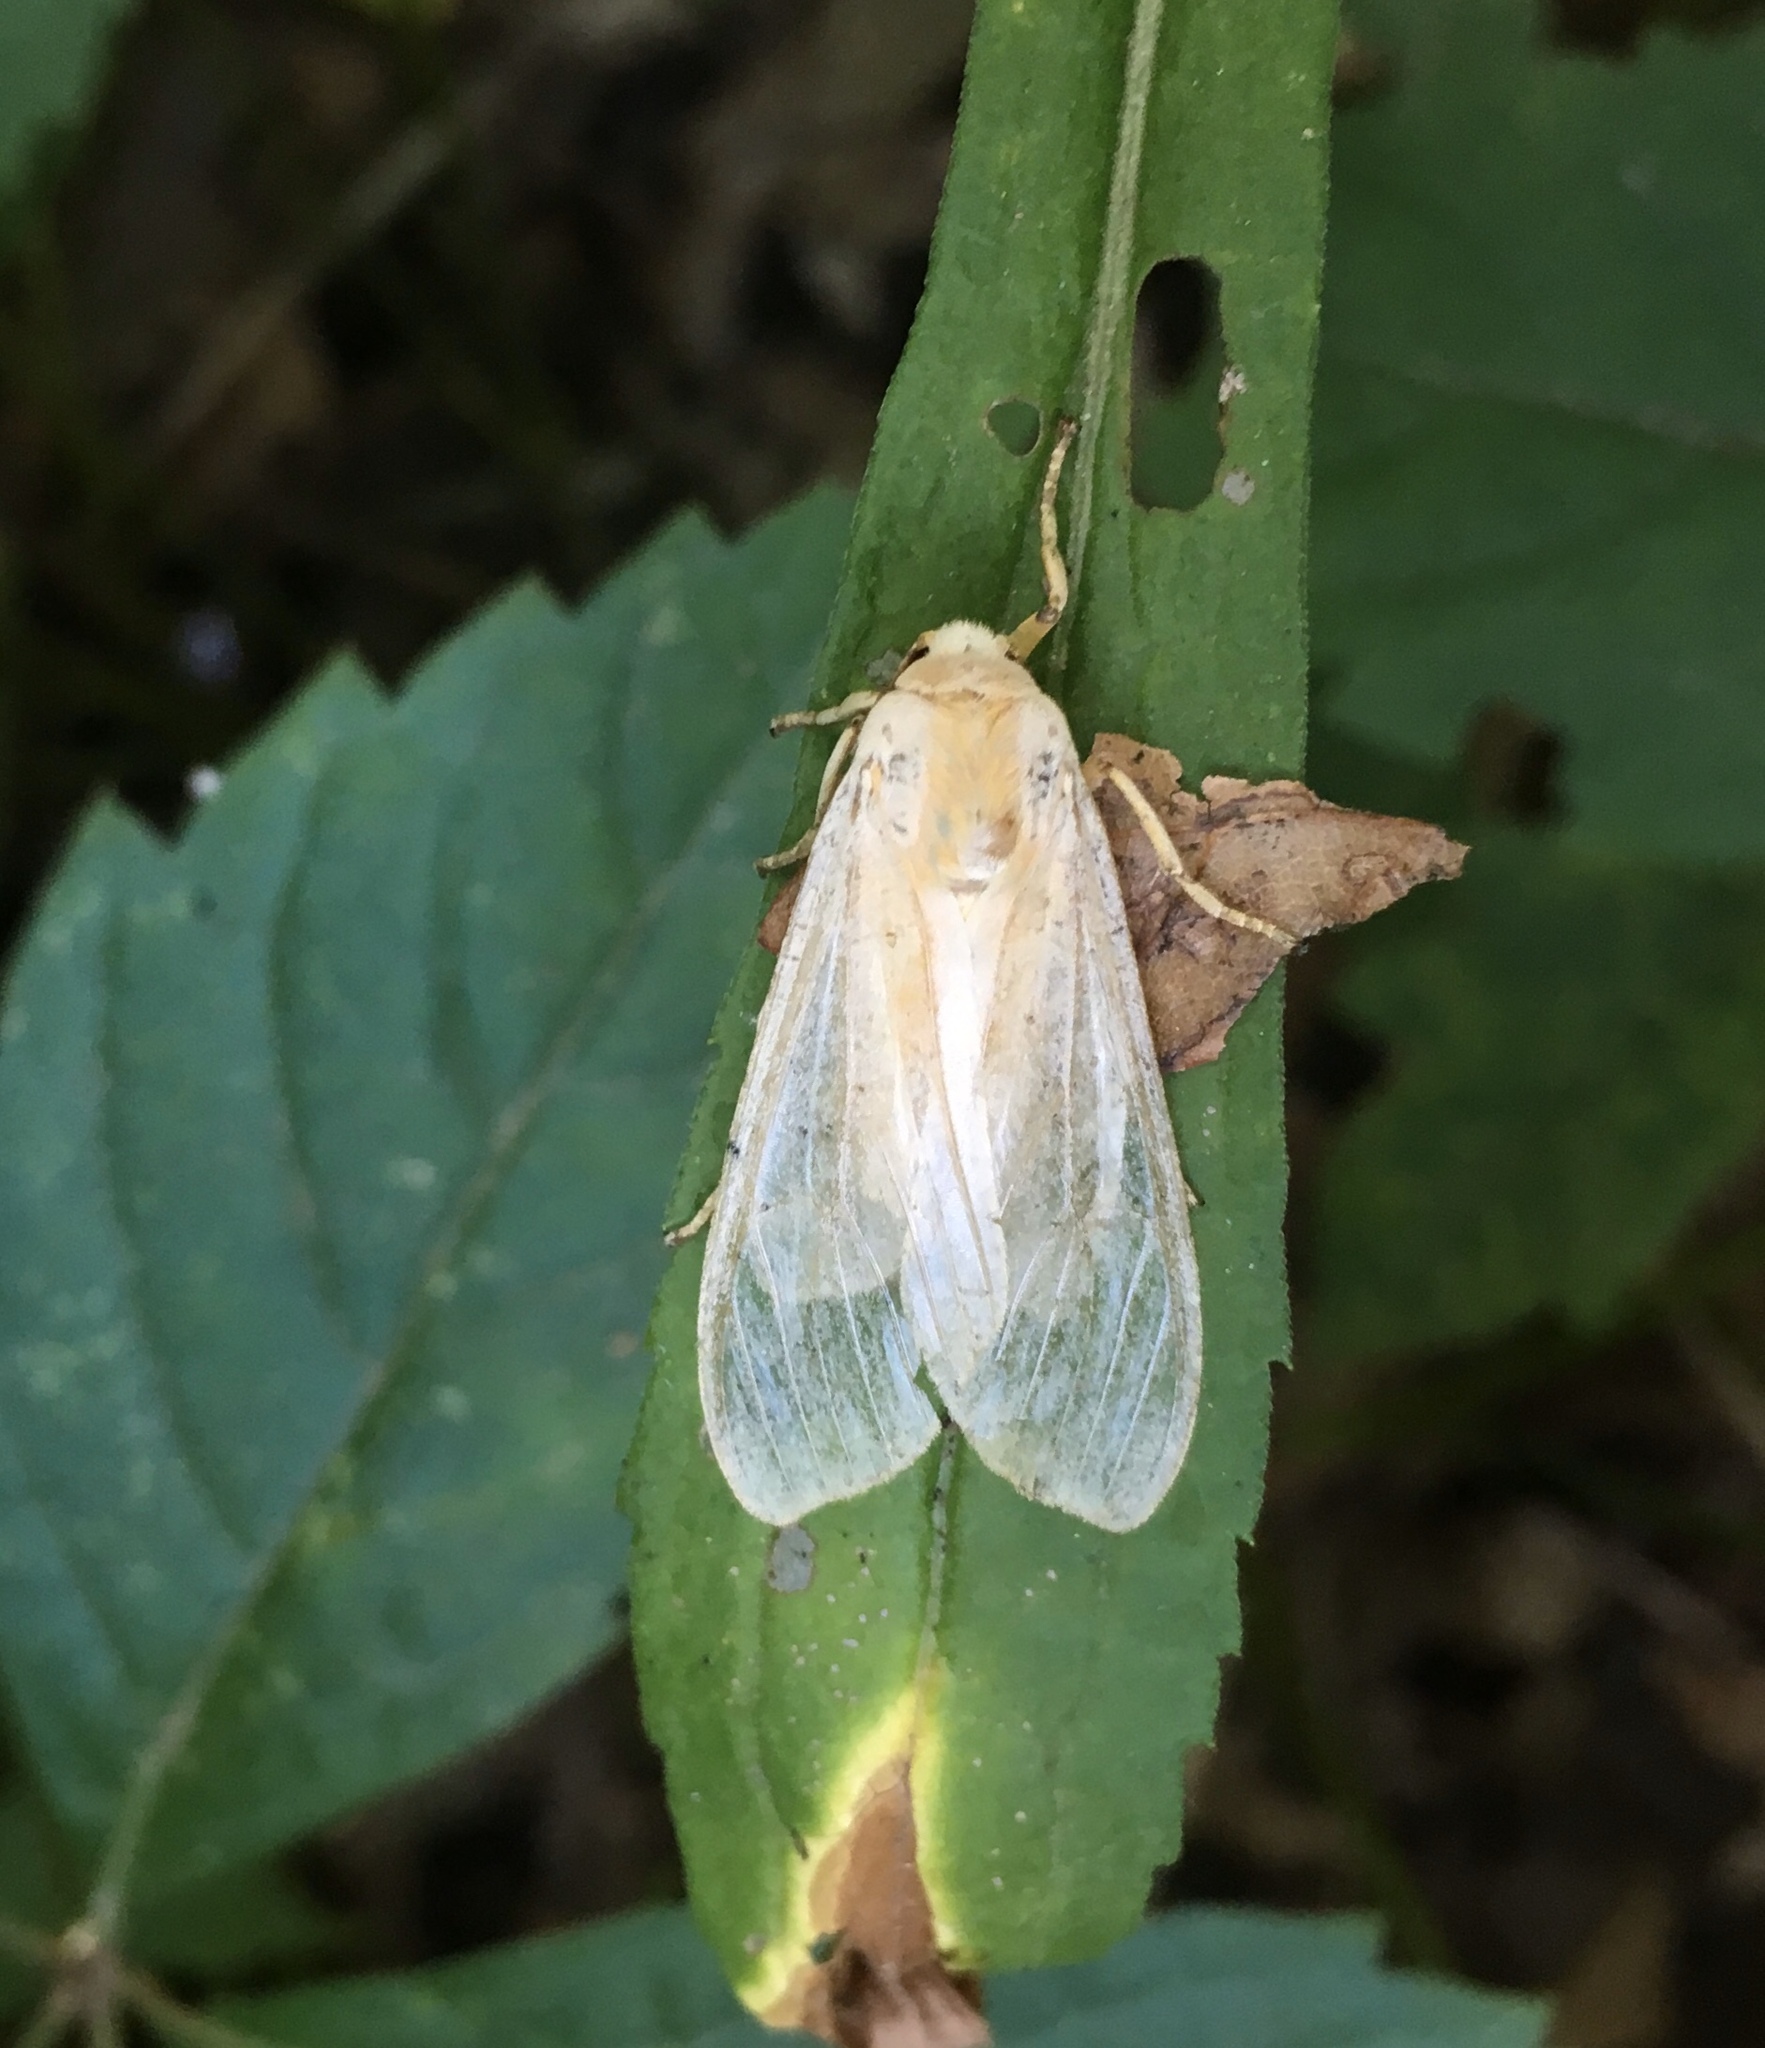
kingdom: Animalia
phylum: Arthropoda
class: Insecta
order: Lepidoptera
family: Erebidae
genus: Halysidota
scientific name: Halysidota
